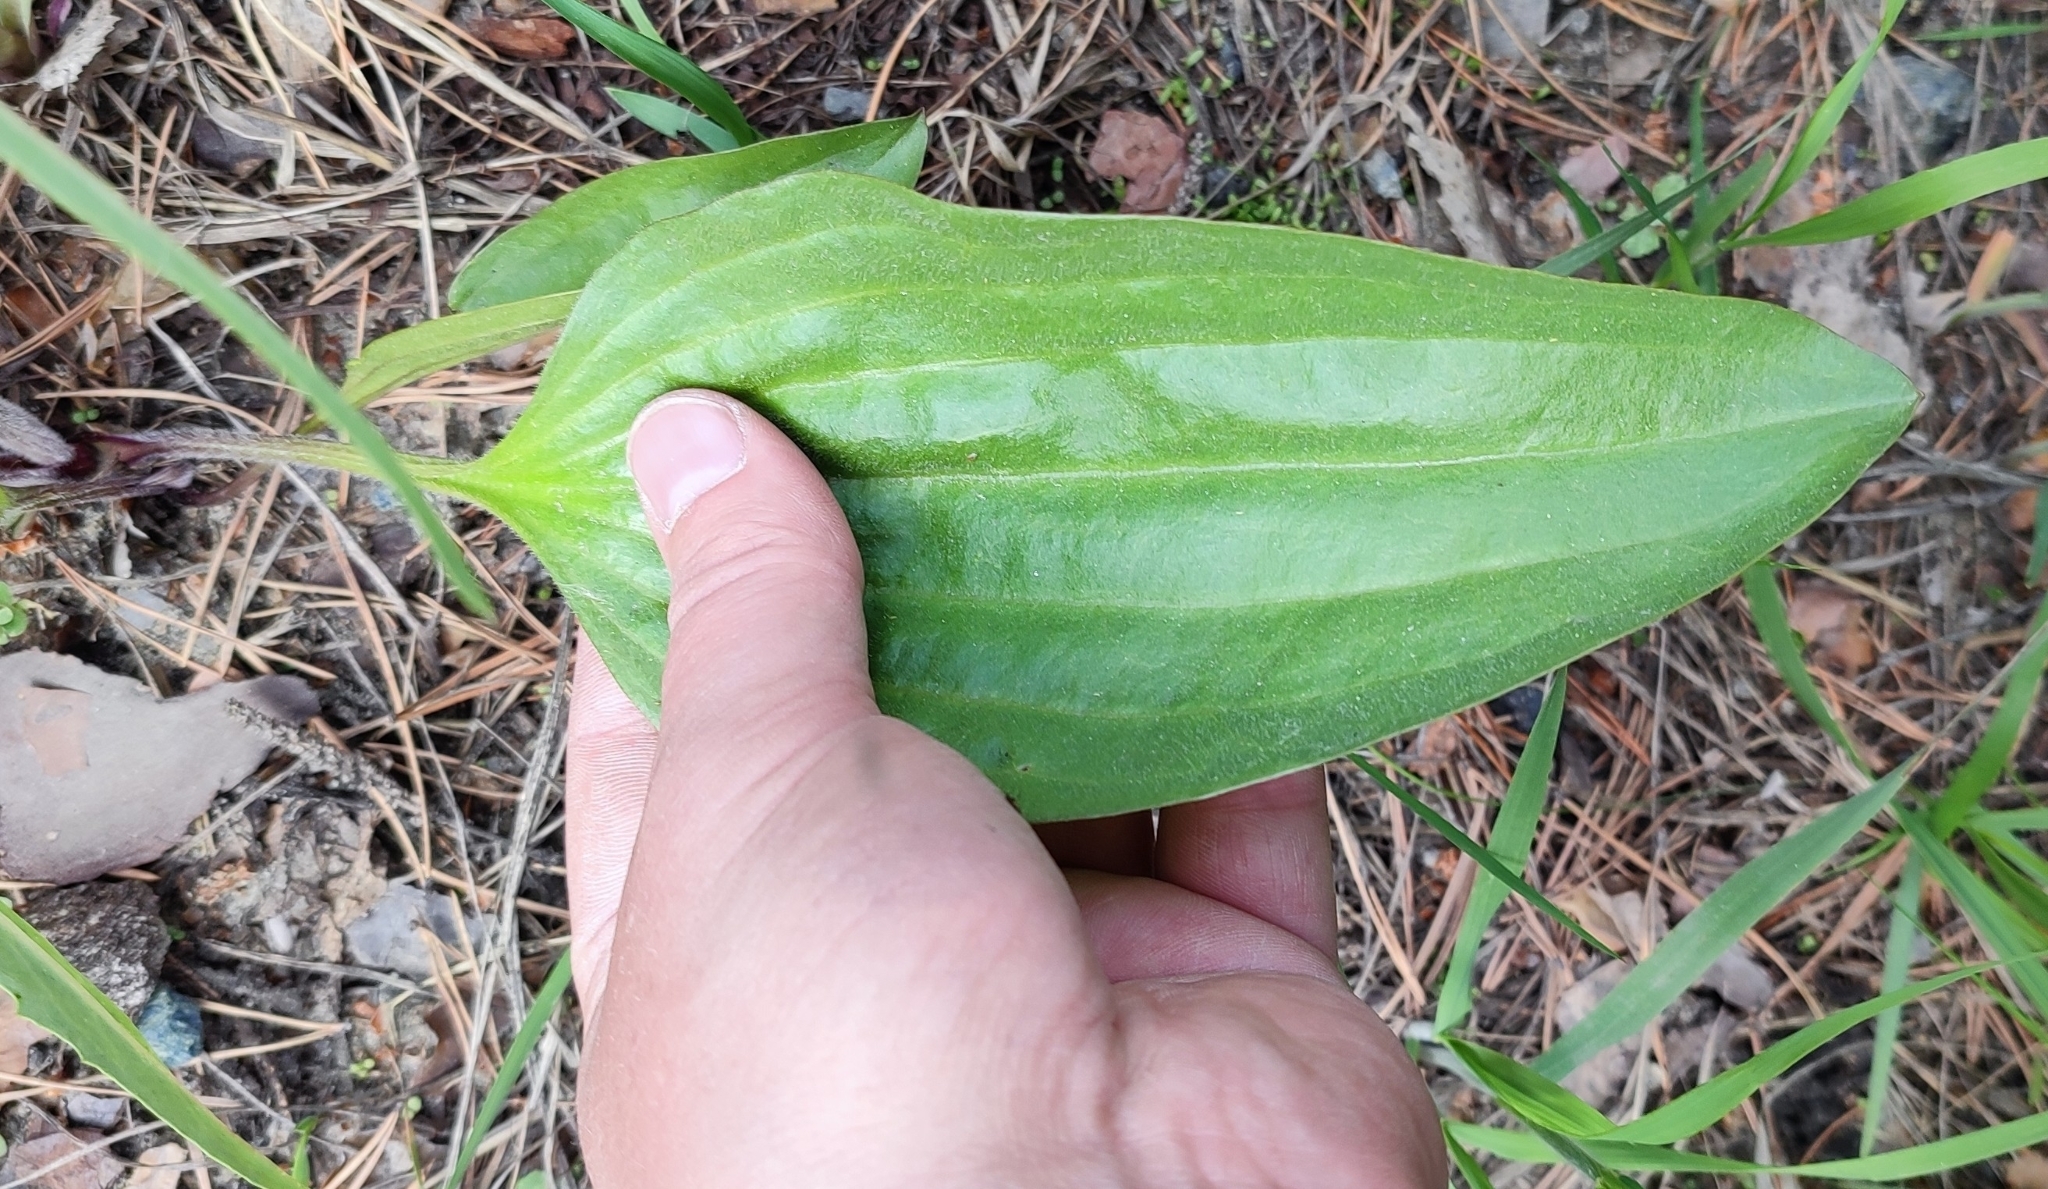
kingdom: Plantae
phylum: Tracheophyta
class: Magnoliopsida
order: Lamiales
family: Plantaginaceae
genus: Plantago
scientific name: Plantago cornuti
